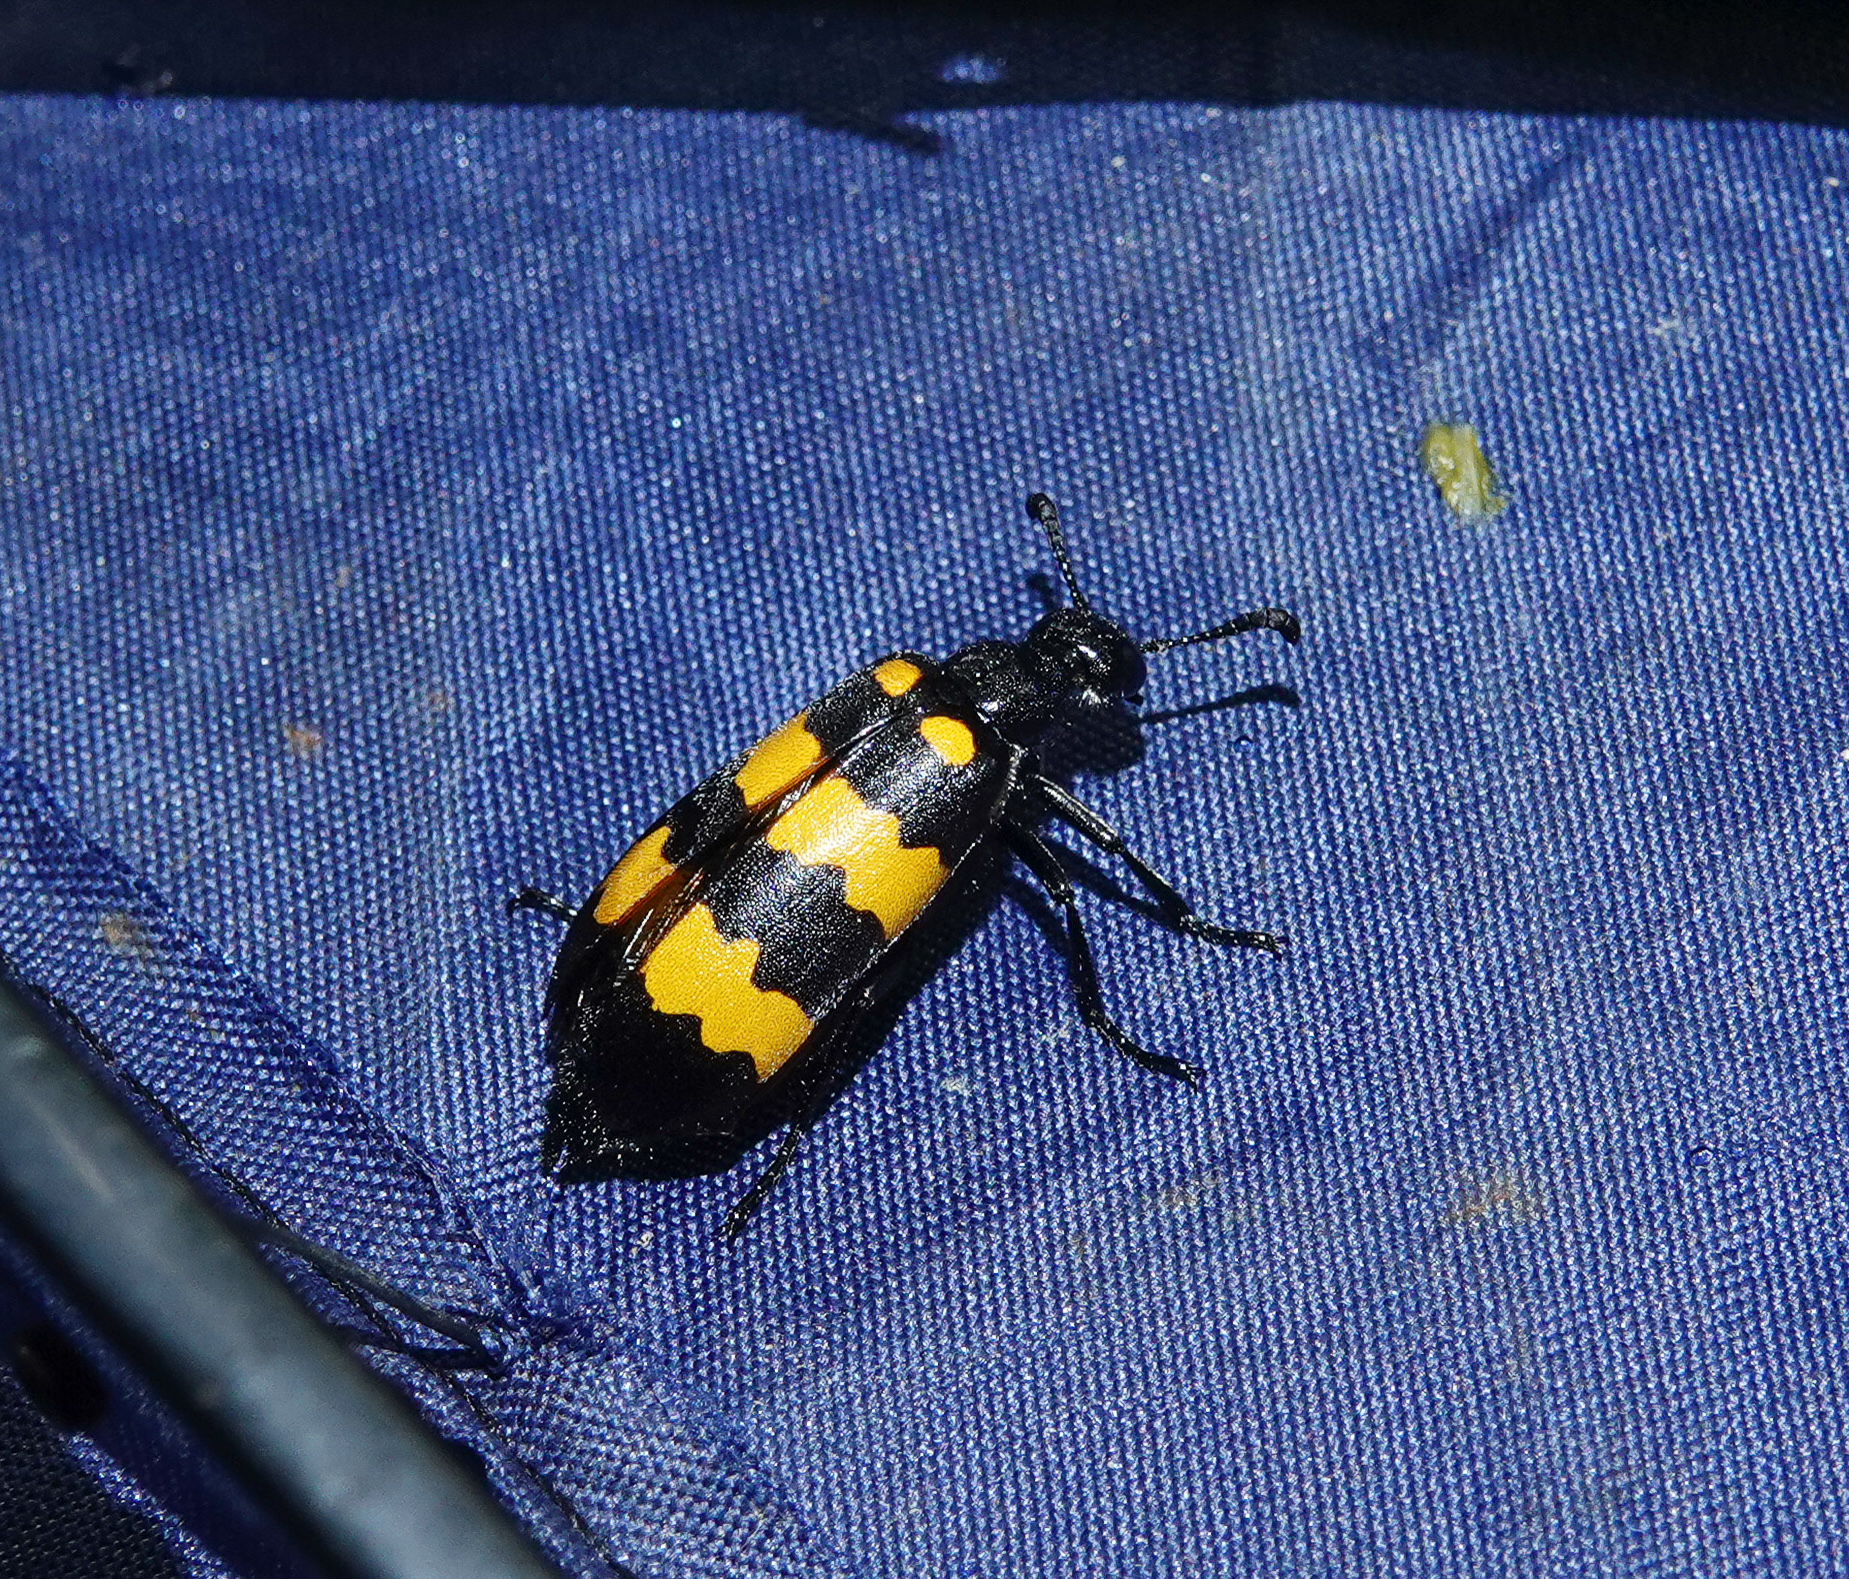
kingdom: Animalia
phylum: Arthropoda
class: Insecta
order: Coleoptera
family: Meloidae
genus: Hycleus
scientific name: Hycleus phaleratus
